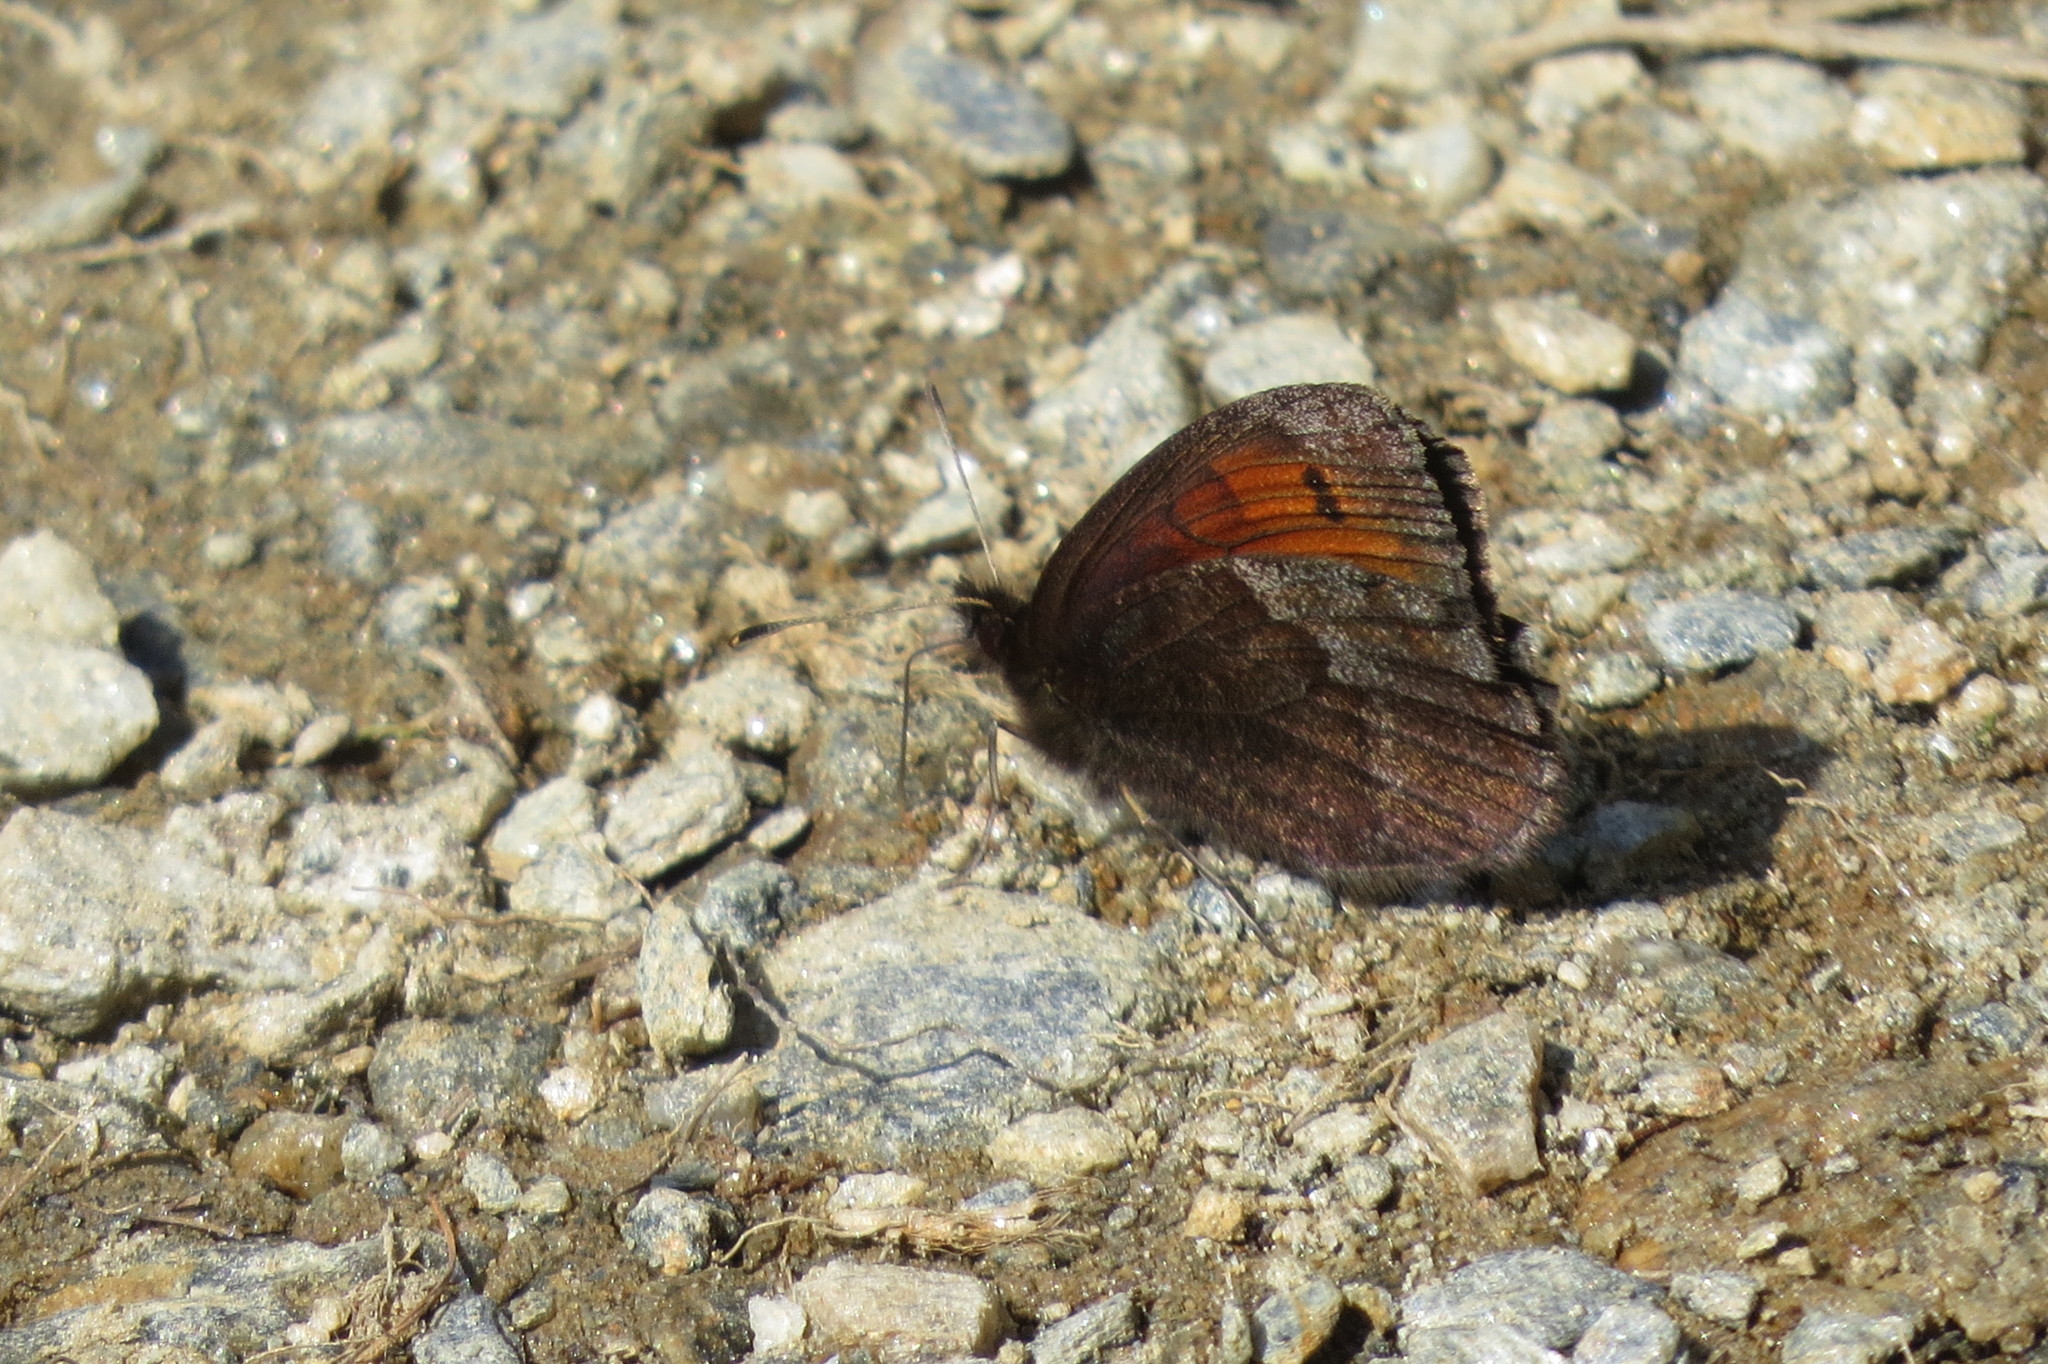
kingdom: Animalia
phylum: Arthropoda
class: Insecta
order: Lepidoptera
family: Nymphalidae
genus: Erebia
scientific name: Erebia pronoe
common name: Water ringlet
